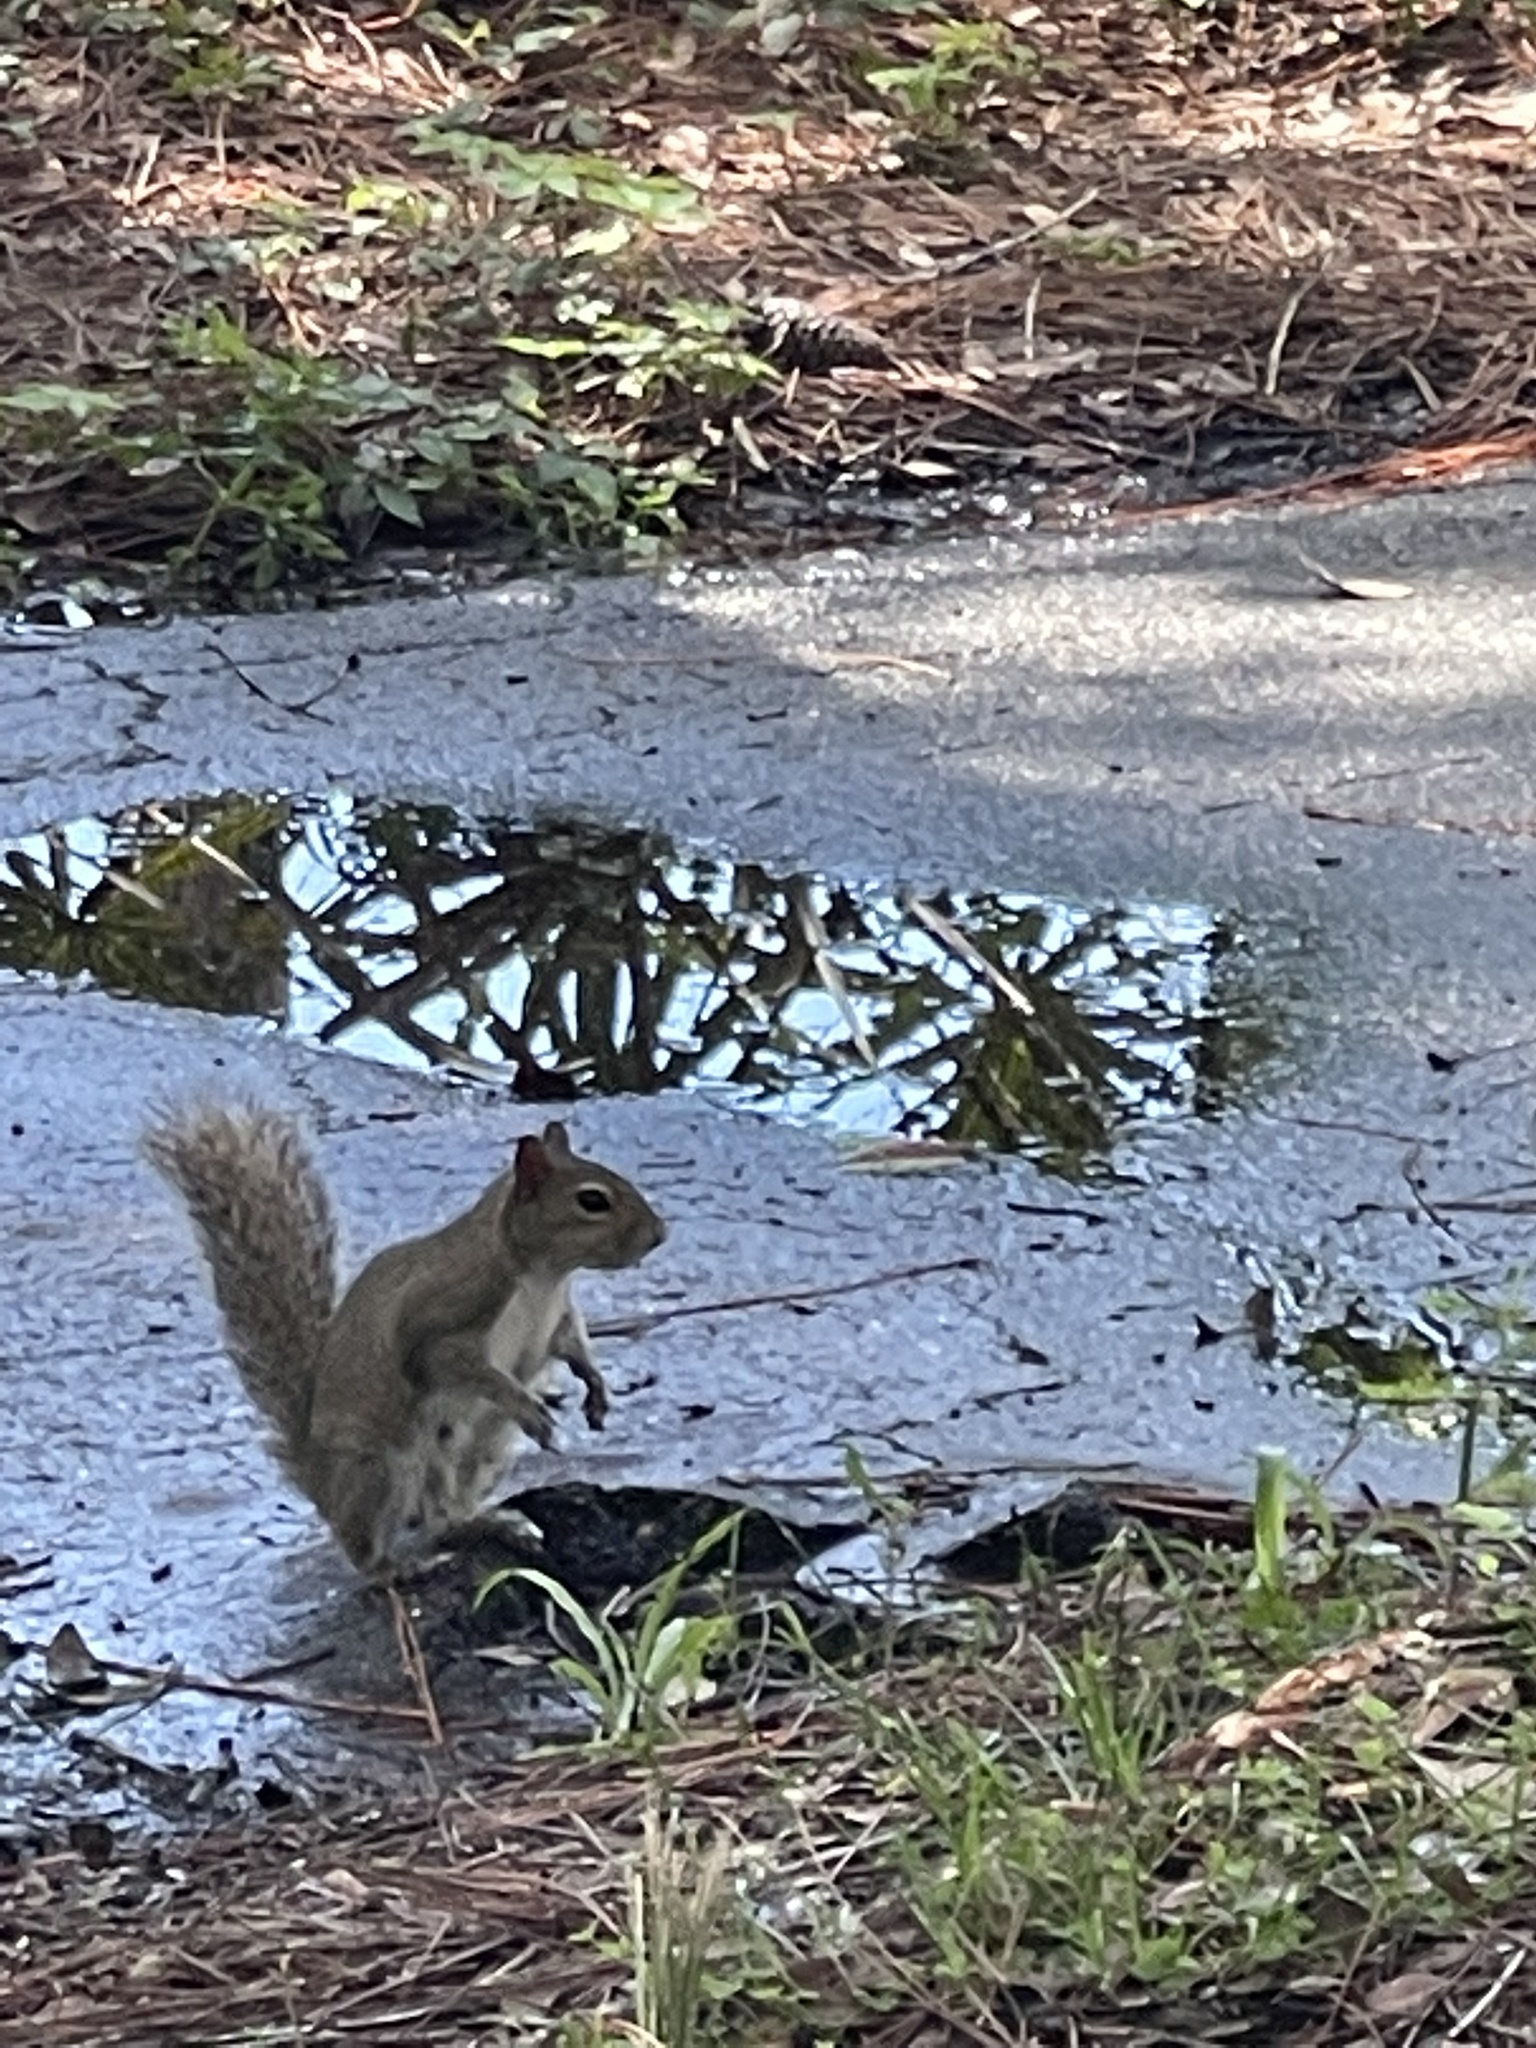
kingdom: Animalia
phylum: Chordata
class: Mammalia
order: Rodentia
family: Sciuridae
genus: Sciurus
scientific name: Sciurus carolinensis
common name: Eastern gray squirrel
